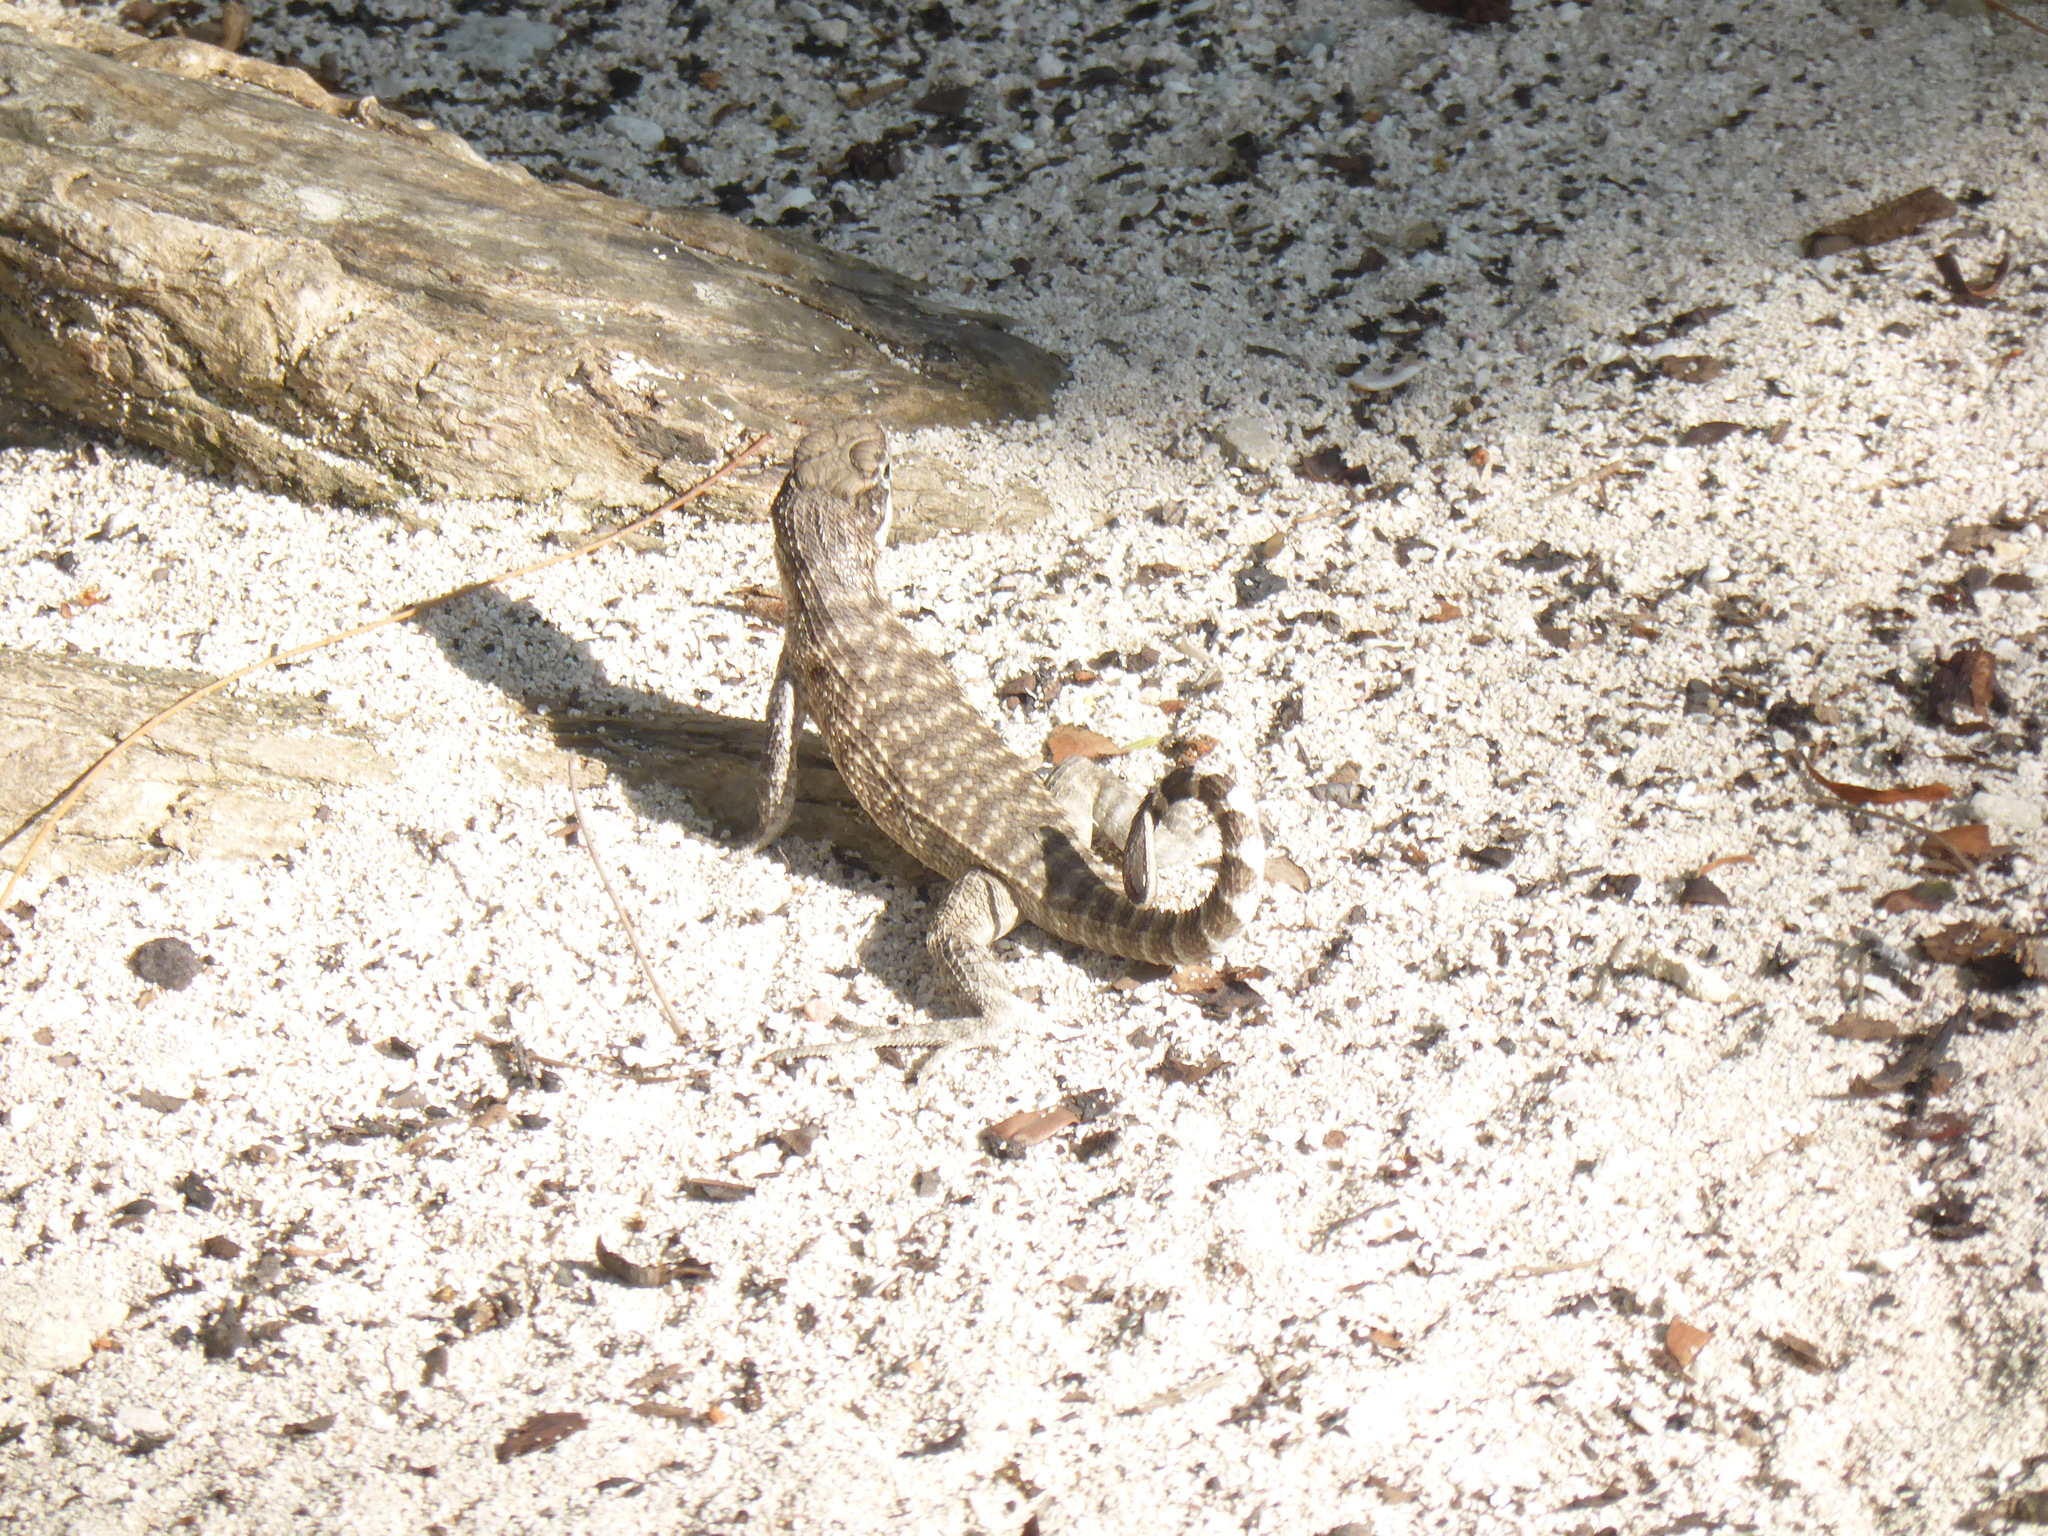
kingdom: Animalia
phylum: Chordata
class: Squamata
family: Leiocephalidae
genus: Leiocephalus
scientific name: Leiocephalus carinatus
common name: Northern curly-tailed lizard
